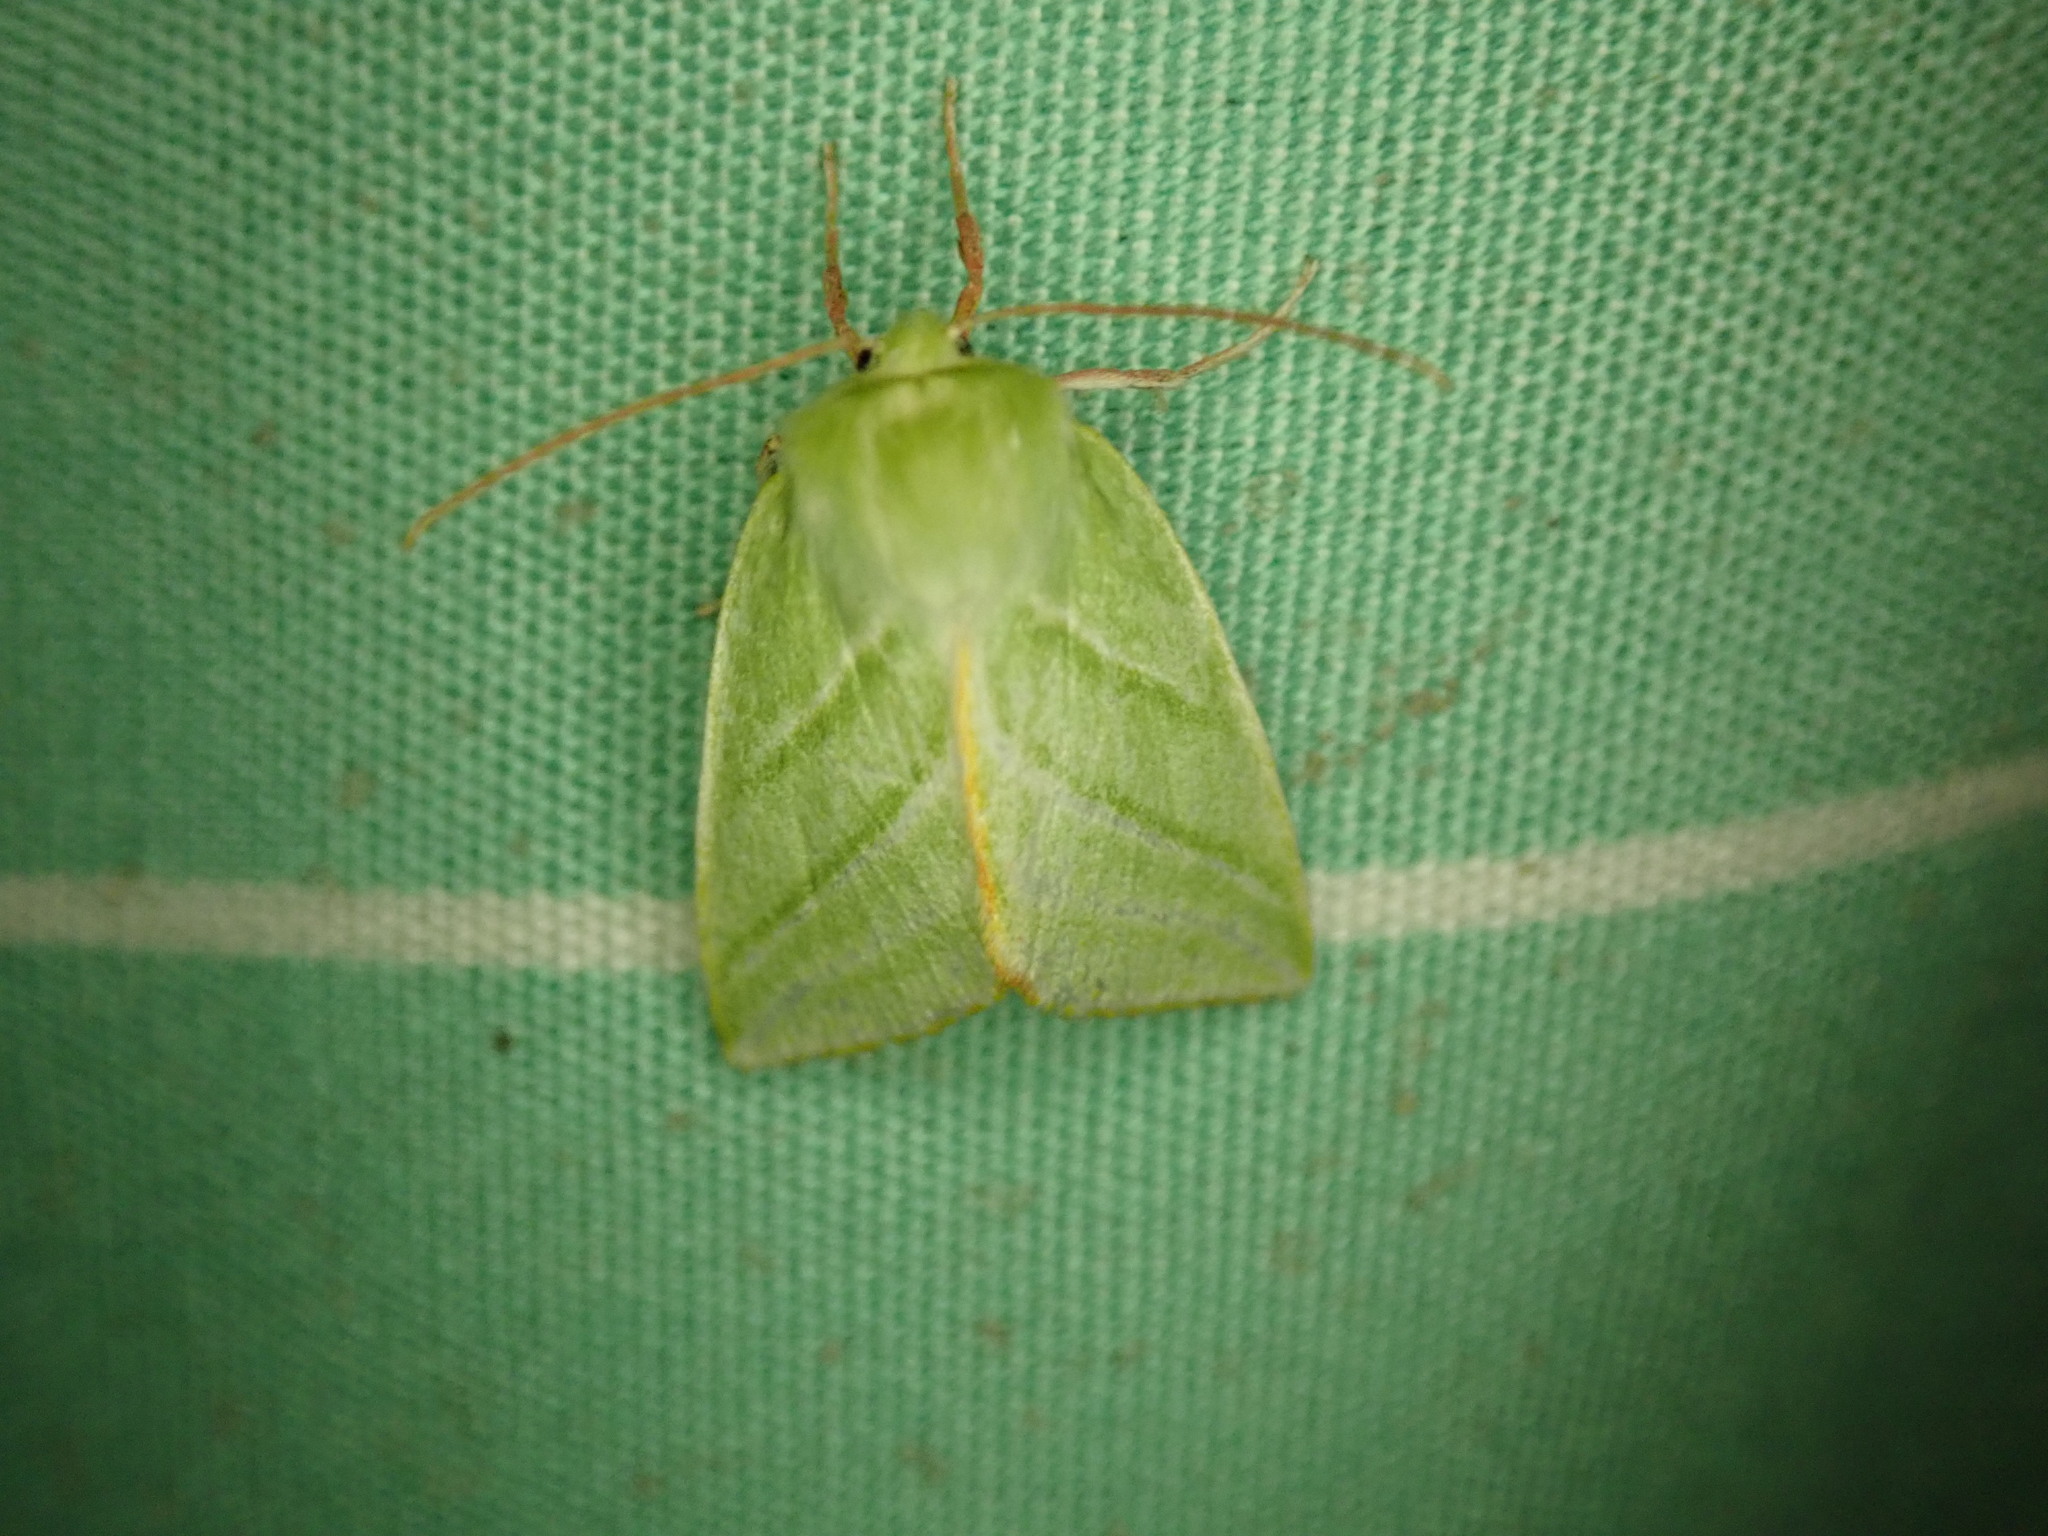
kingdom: Animalia
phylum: Arthropoda
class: Insecta
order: Lepidoptera
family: Nolidae
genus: Pseudoips
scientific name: Pseudoips prasinana
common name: Green silver-lines
